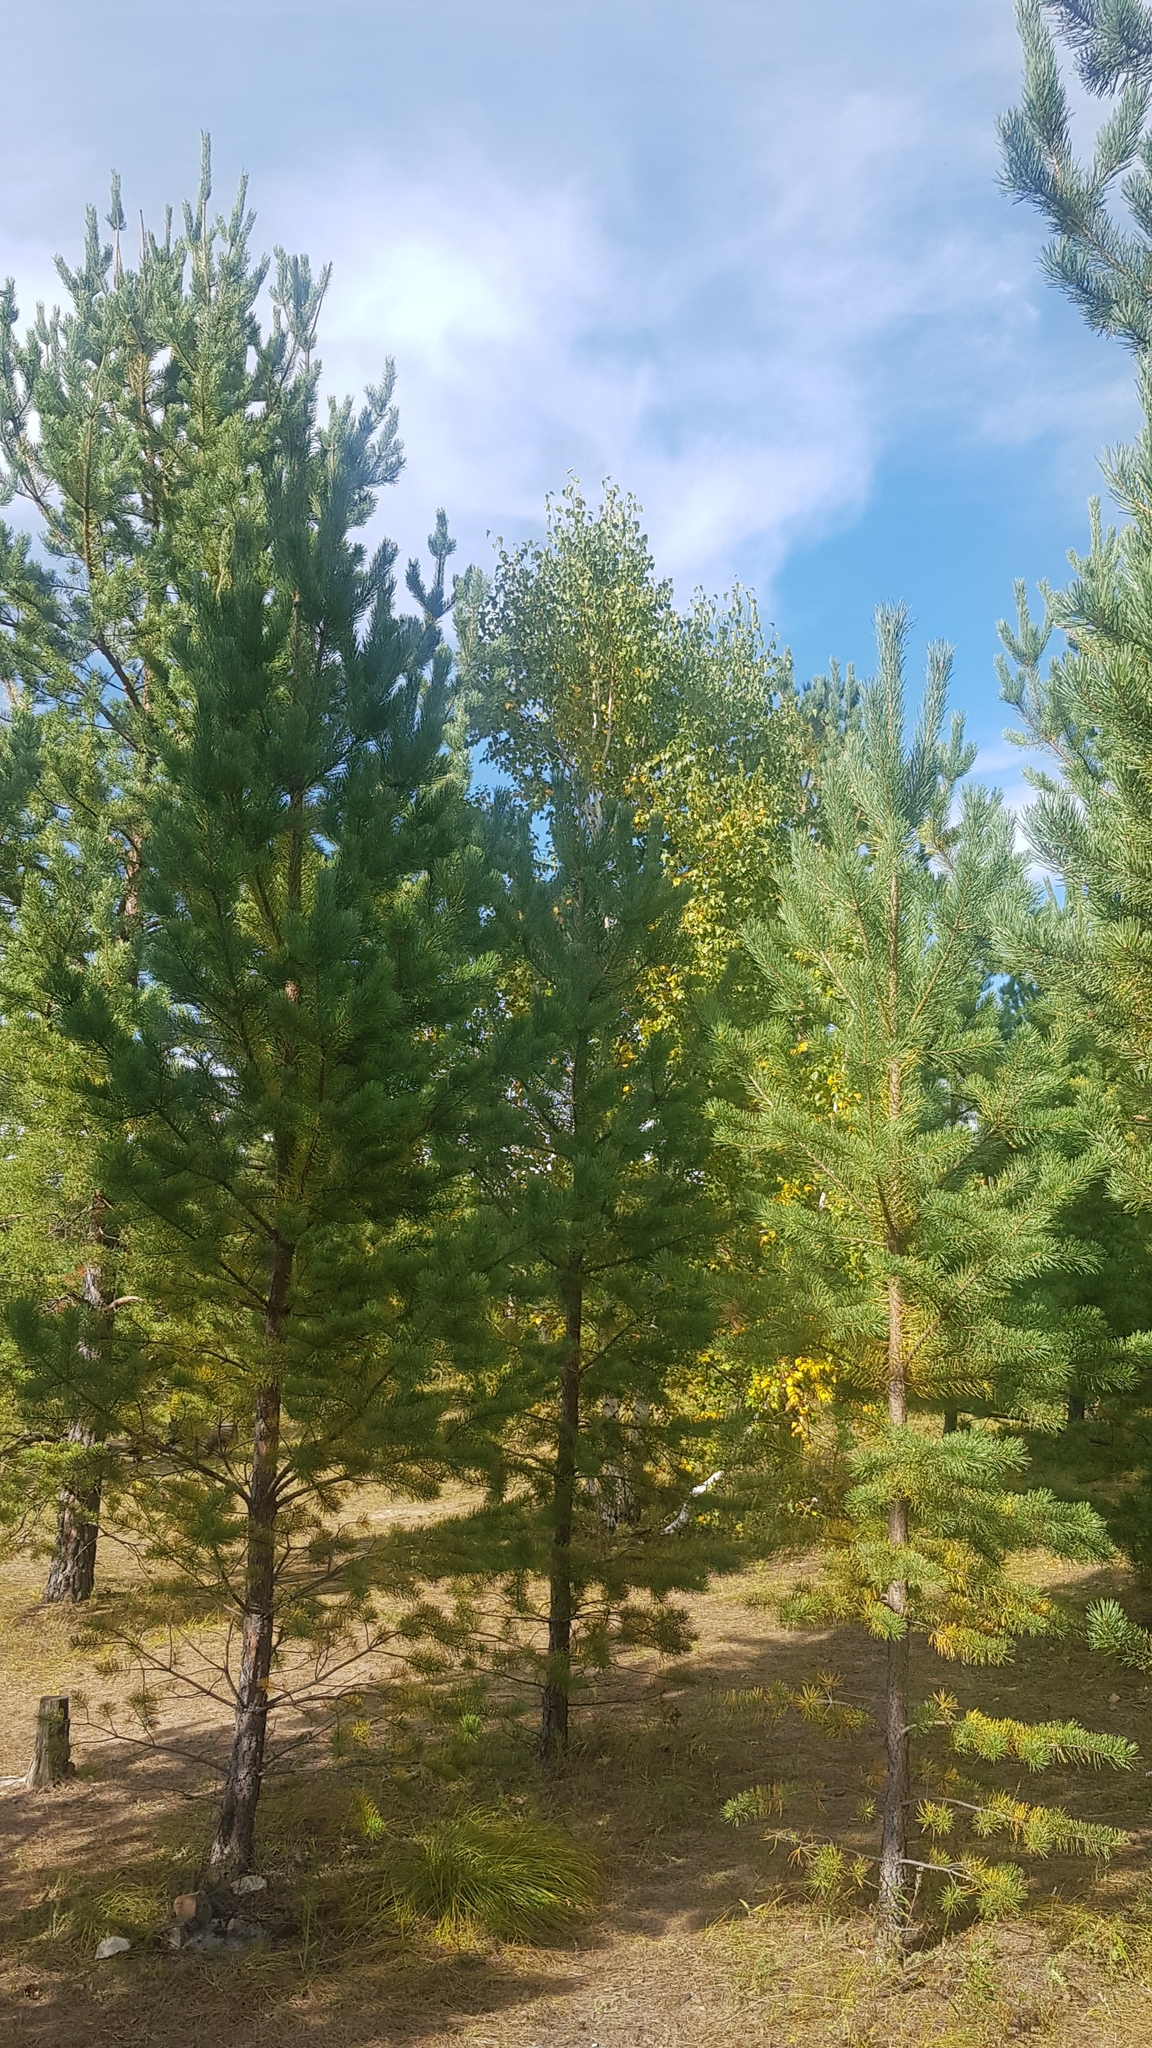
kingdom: Plantae
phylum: Tracheophyta
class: Pinopsida
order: Pinales
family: Pinaceae
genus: Pinus
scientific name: Pinus sylvestris
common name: Scots pine
